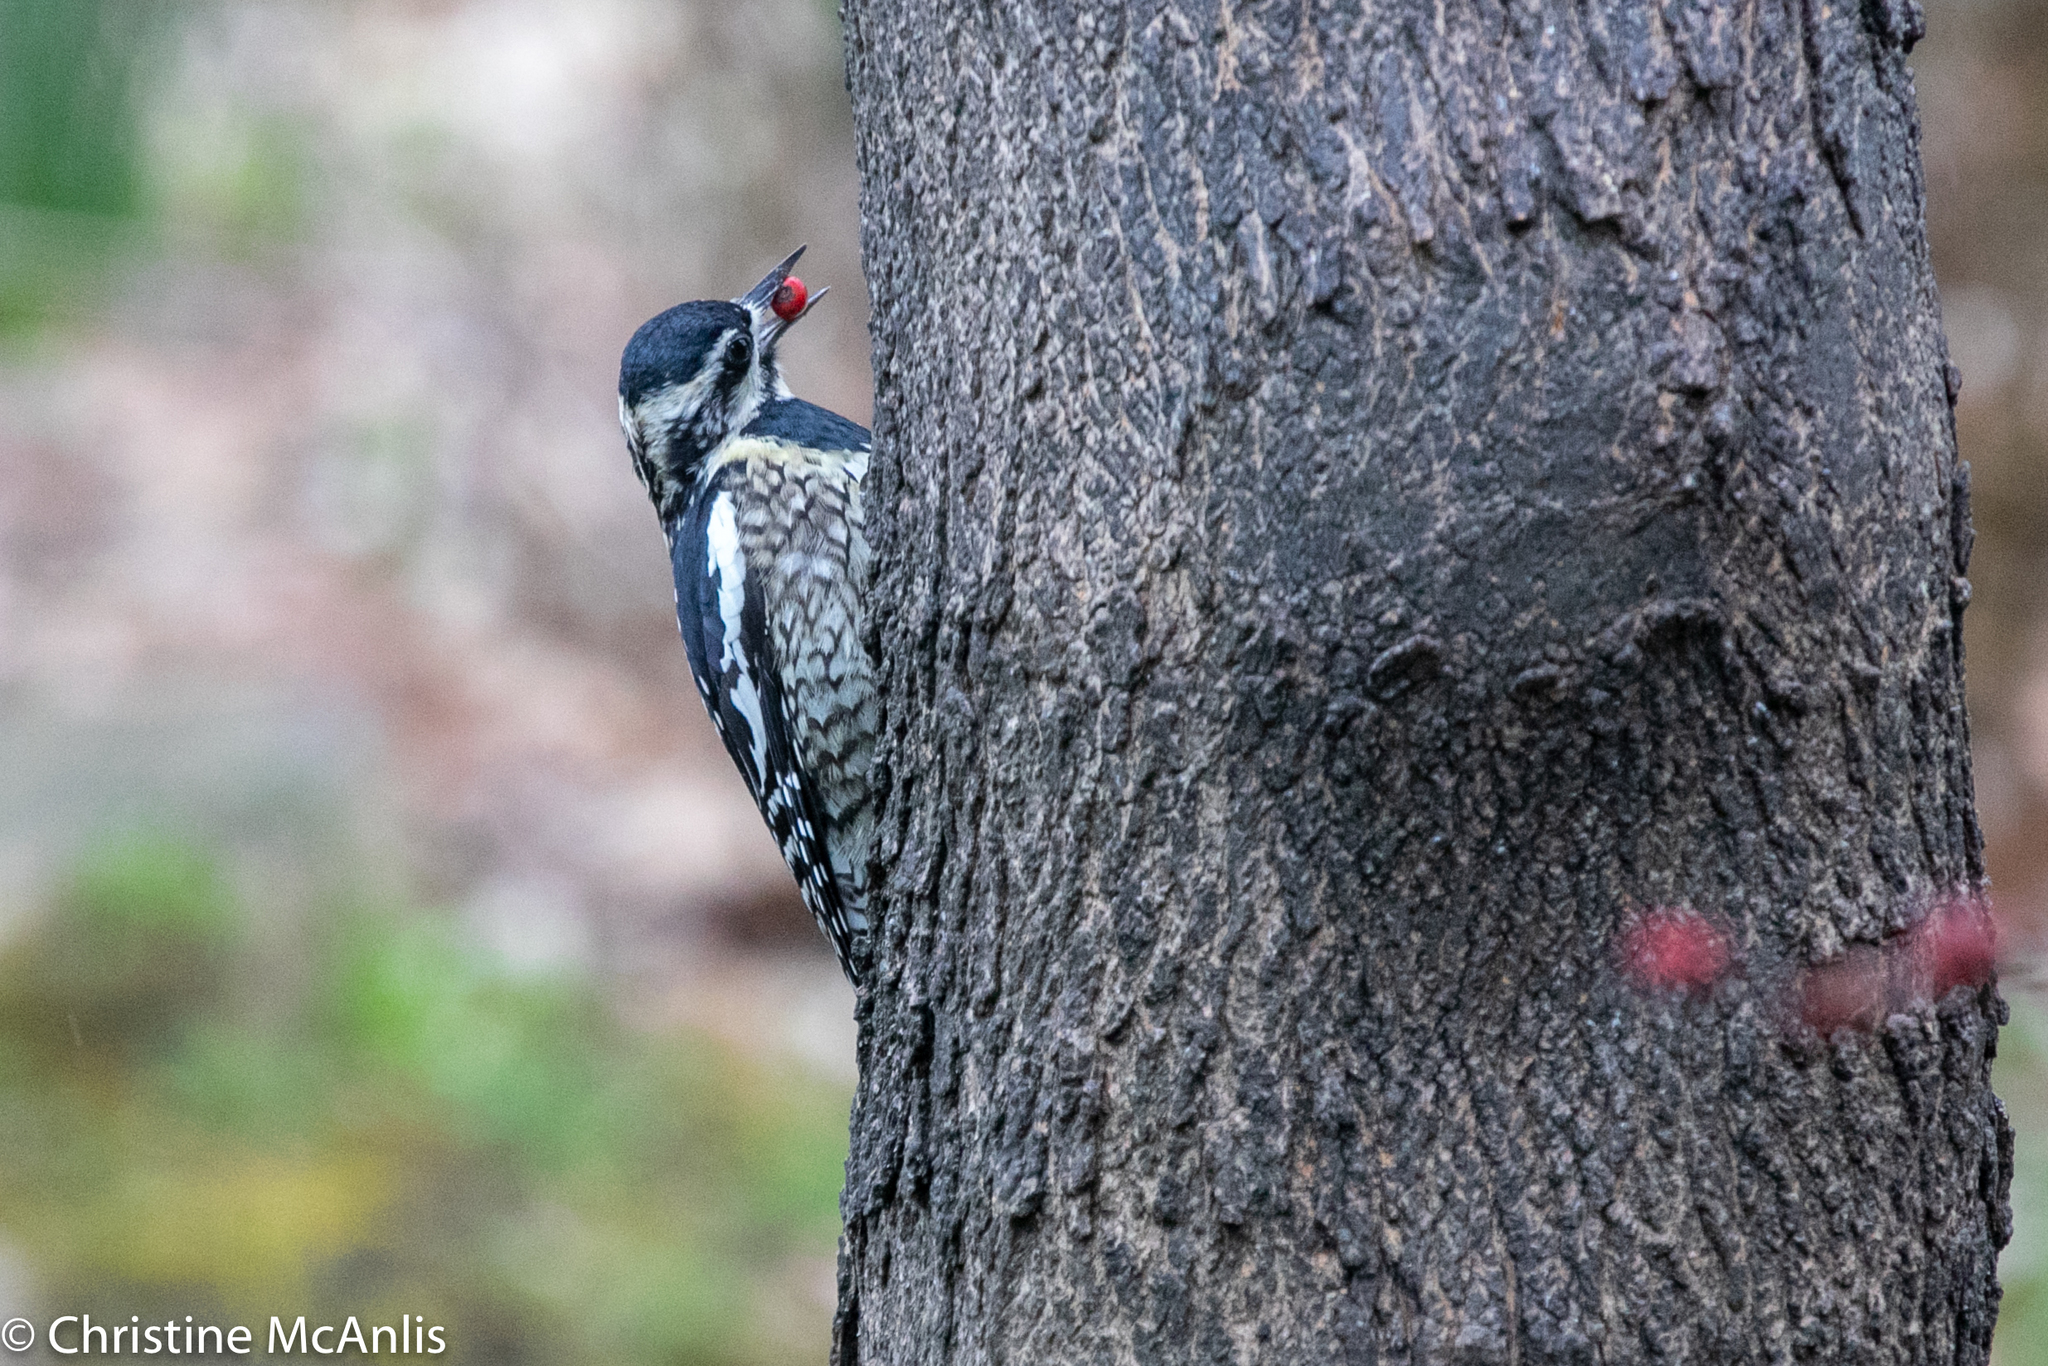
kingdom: Animalia
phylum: Chordata
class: Aves
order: Piciformes
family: Picidae
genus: Sphyrapicus
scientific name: Sphyrapicus varius
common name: Yellow-bellied sapsucker
